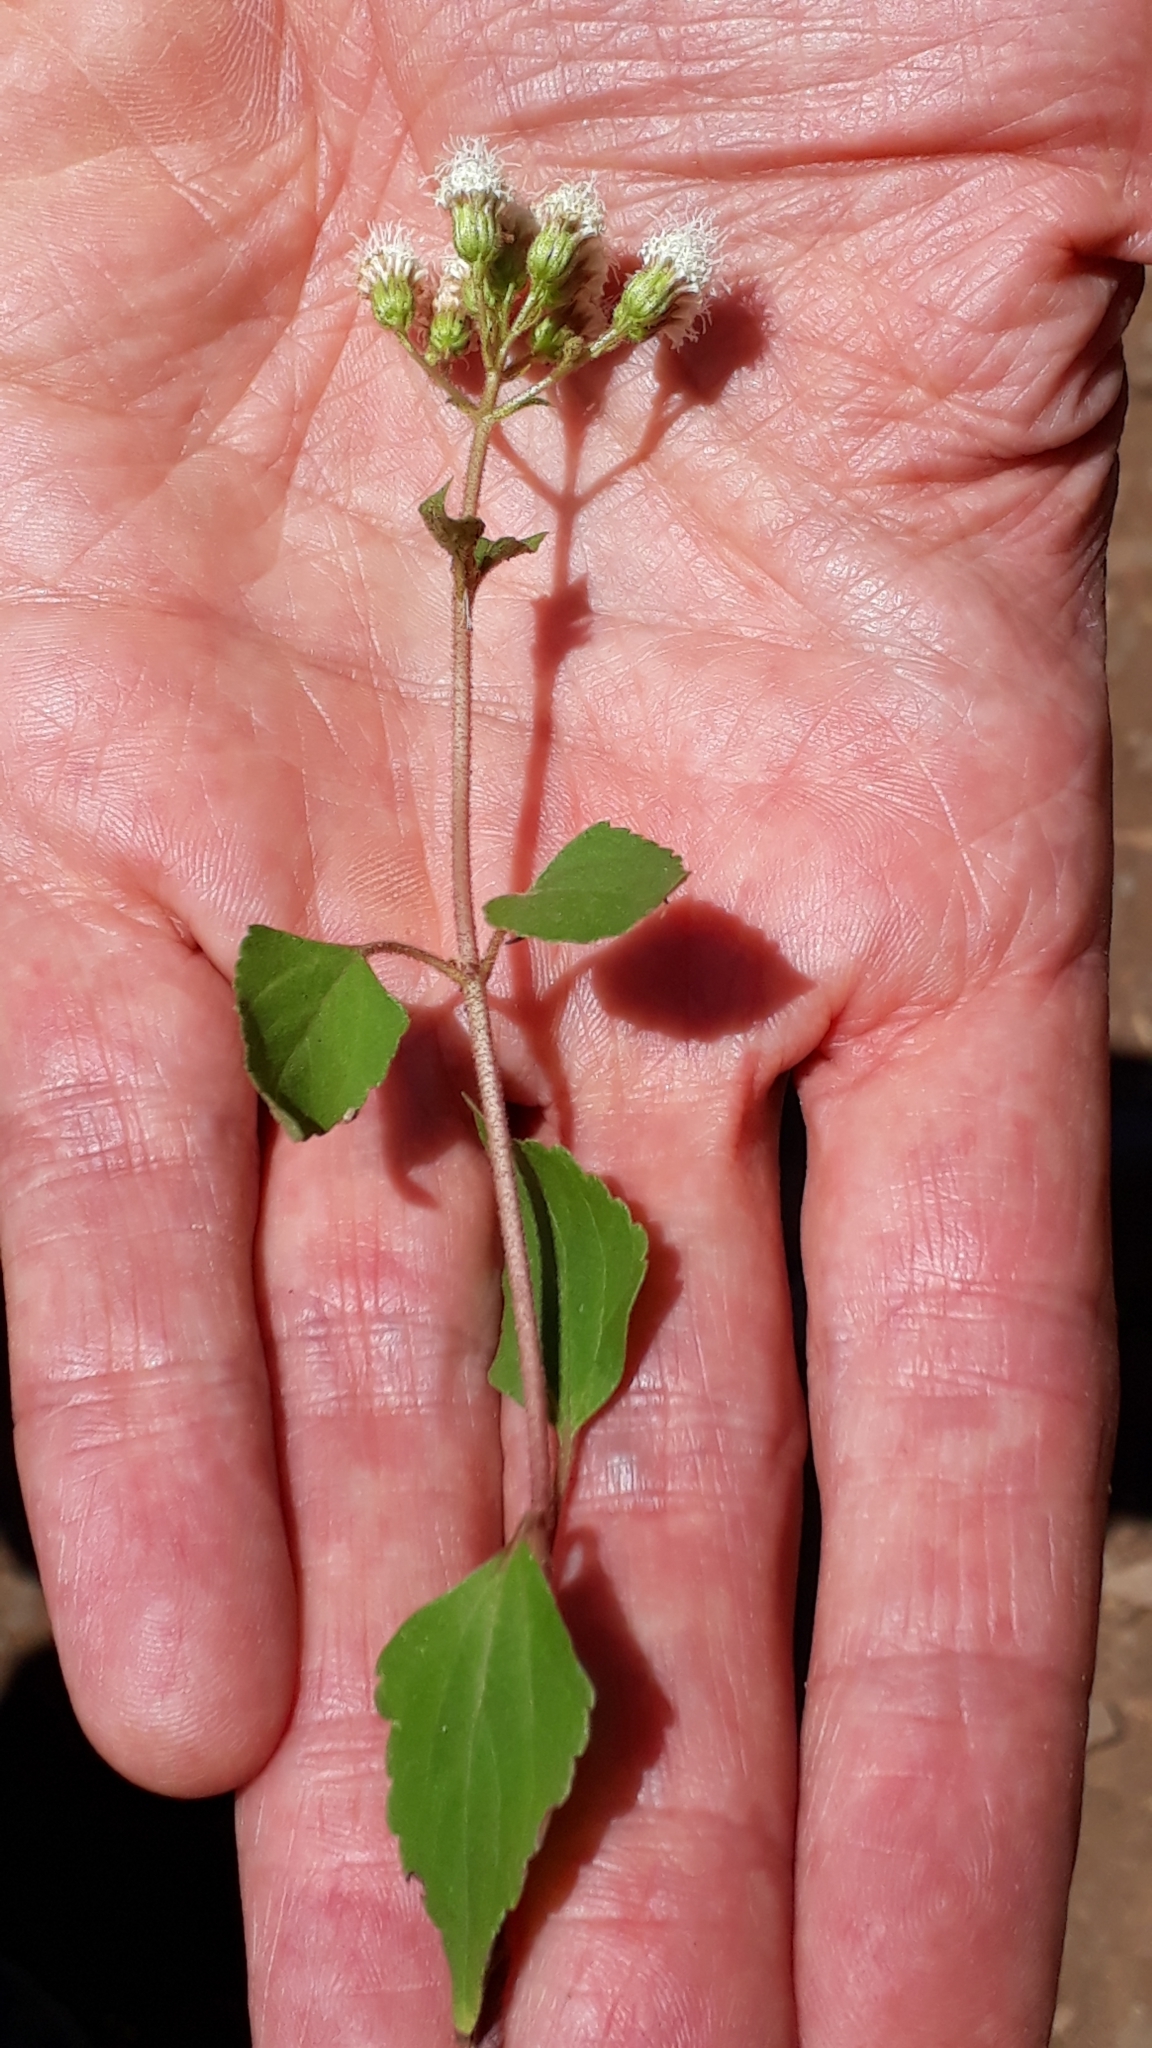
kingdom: Plantae
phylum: Tracheophyta
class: Magnoliopsida
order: Asterales
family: Asteraceae
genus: Ageratina
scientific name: Ageratina adenophora
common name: Sticky snakeroot
